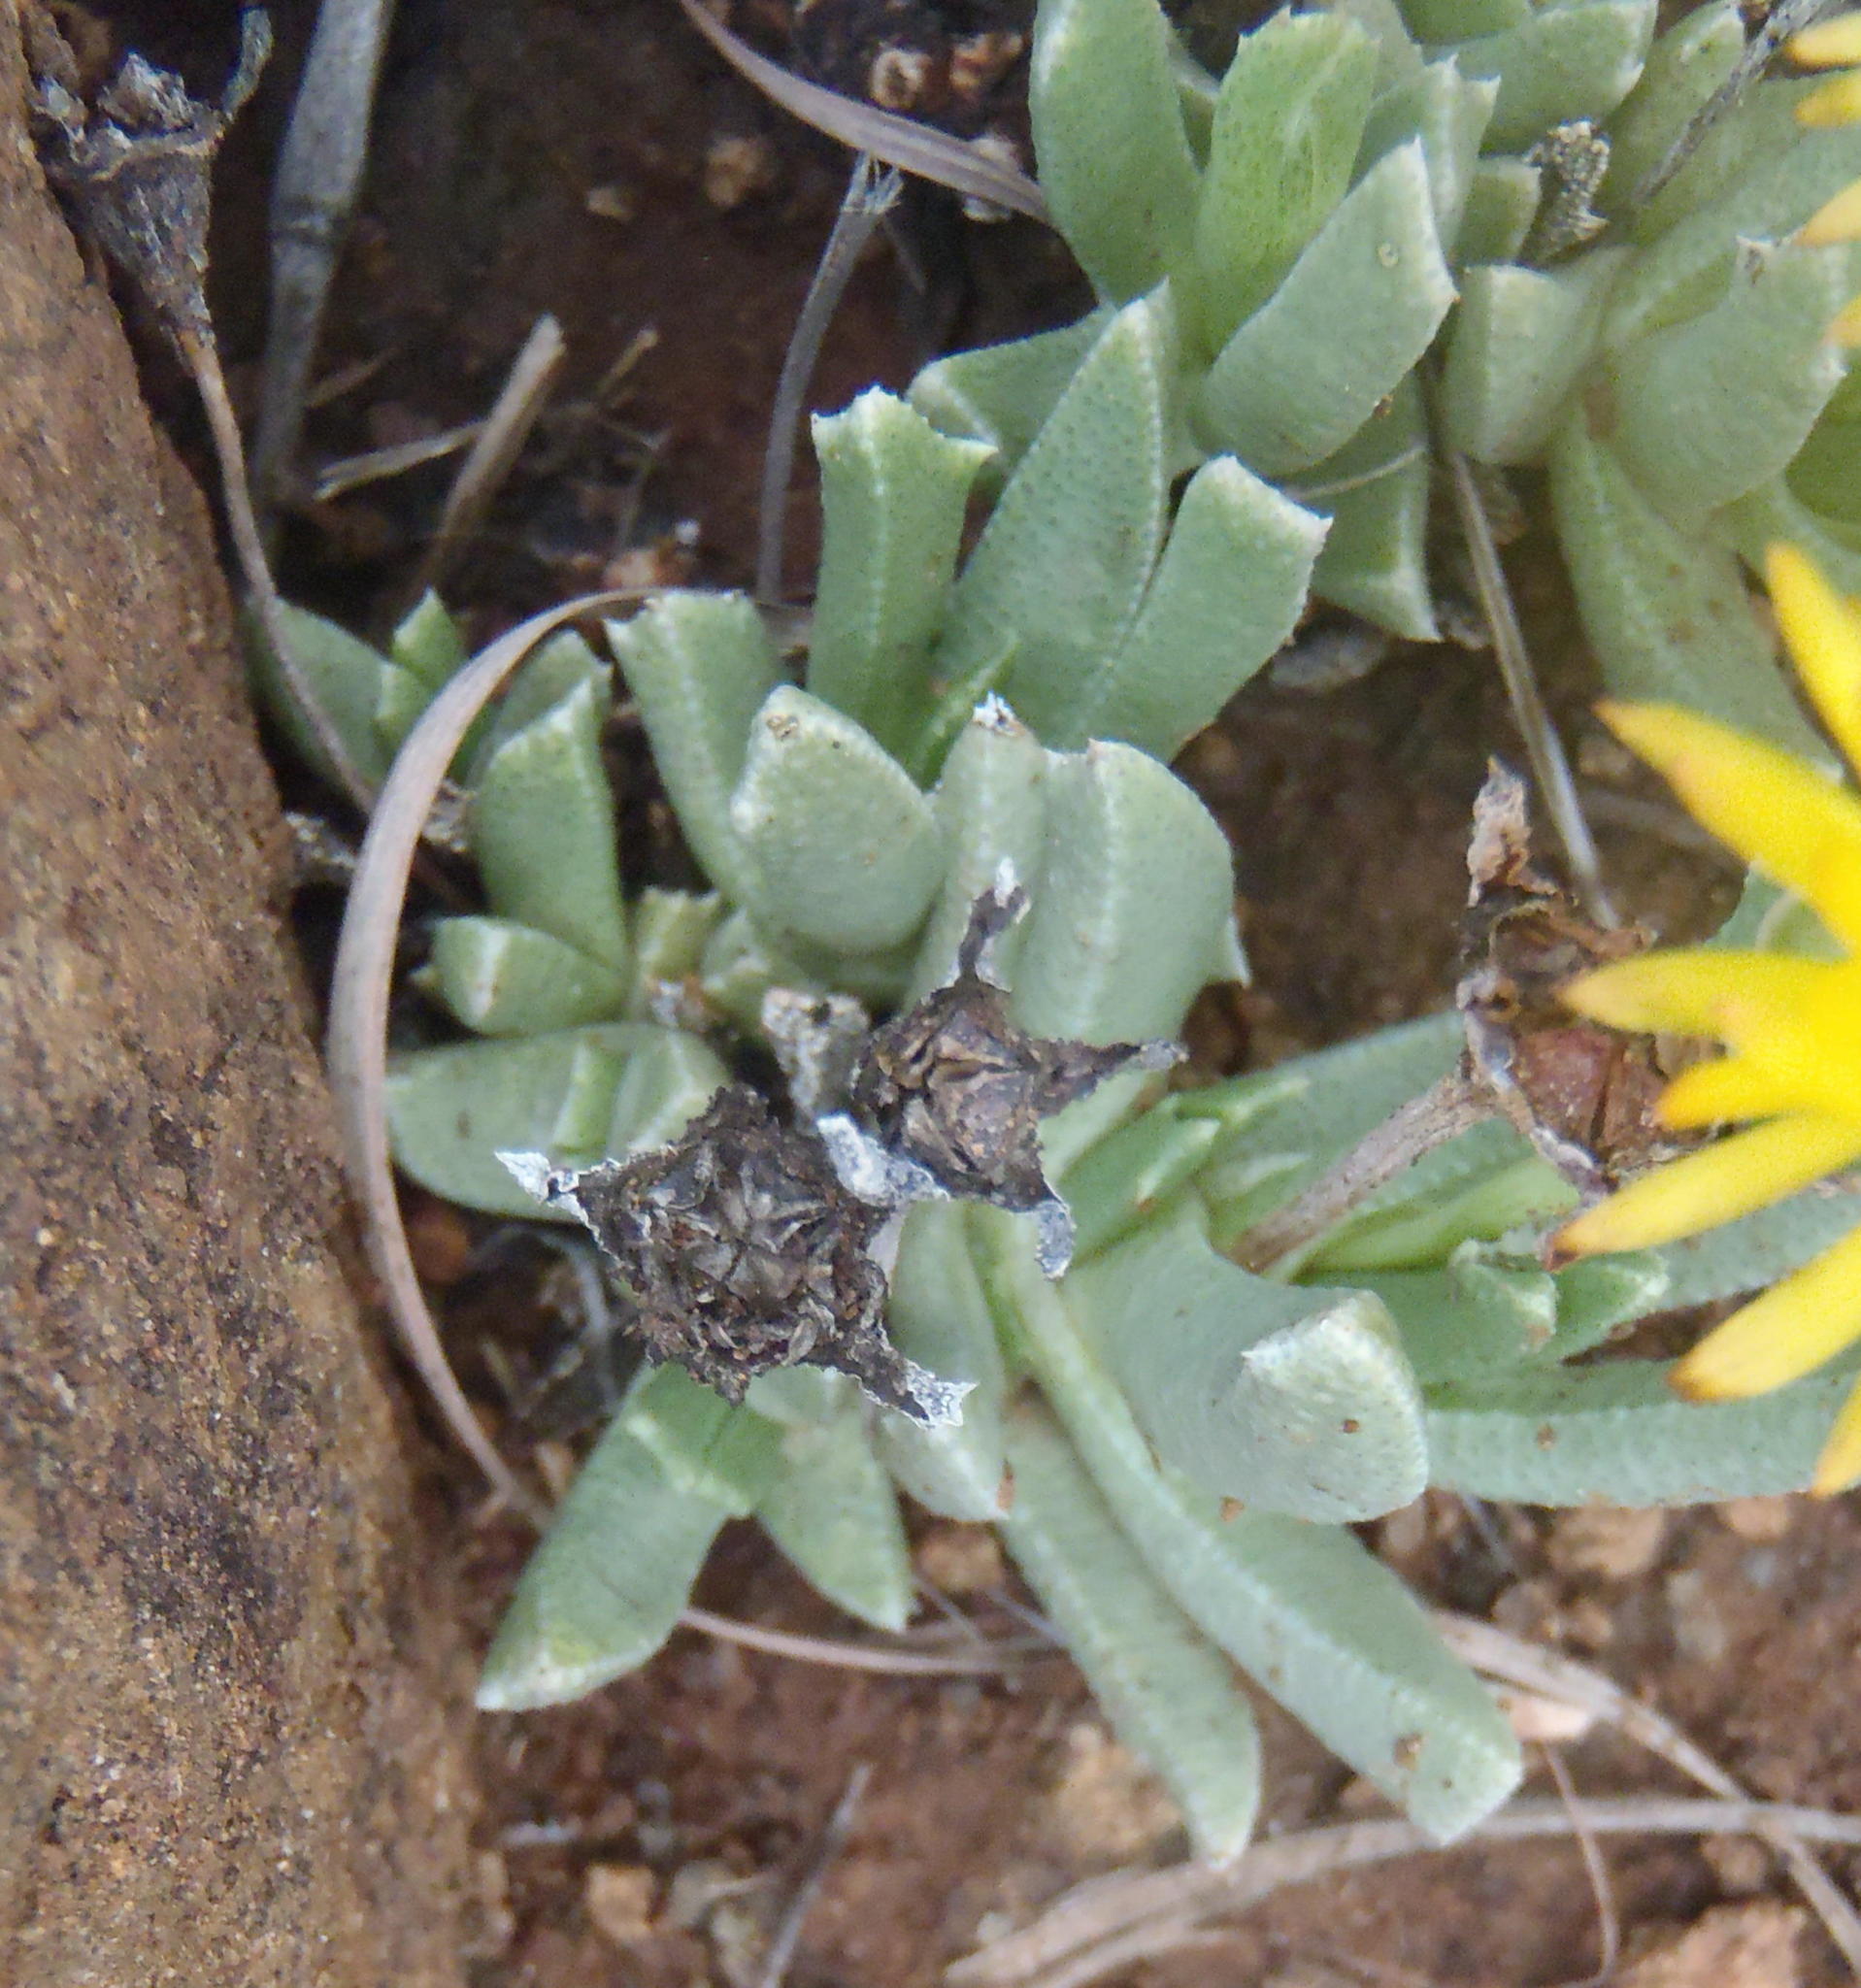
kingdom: Plantae
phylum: Tracheophyta
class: Magnoliopsida
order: Caryophyllales
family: Aizoaceae
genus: Dracophilus
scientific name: Dracophilus Chasmatophyllum musculinum
